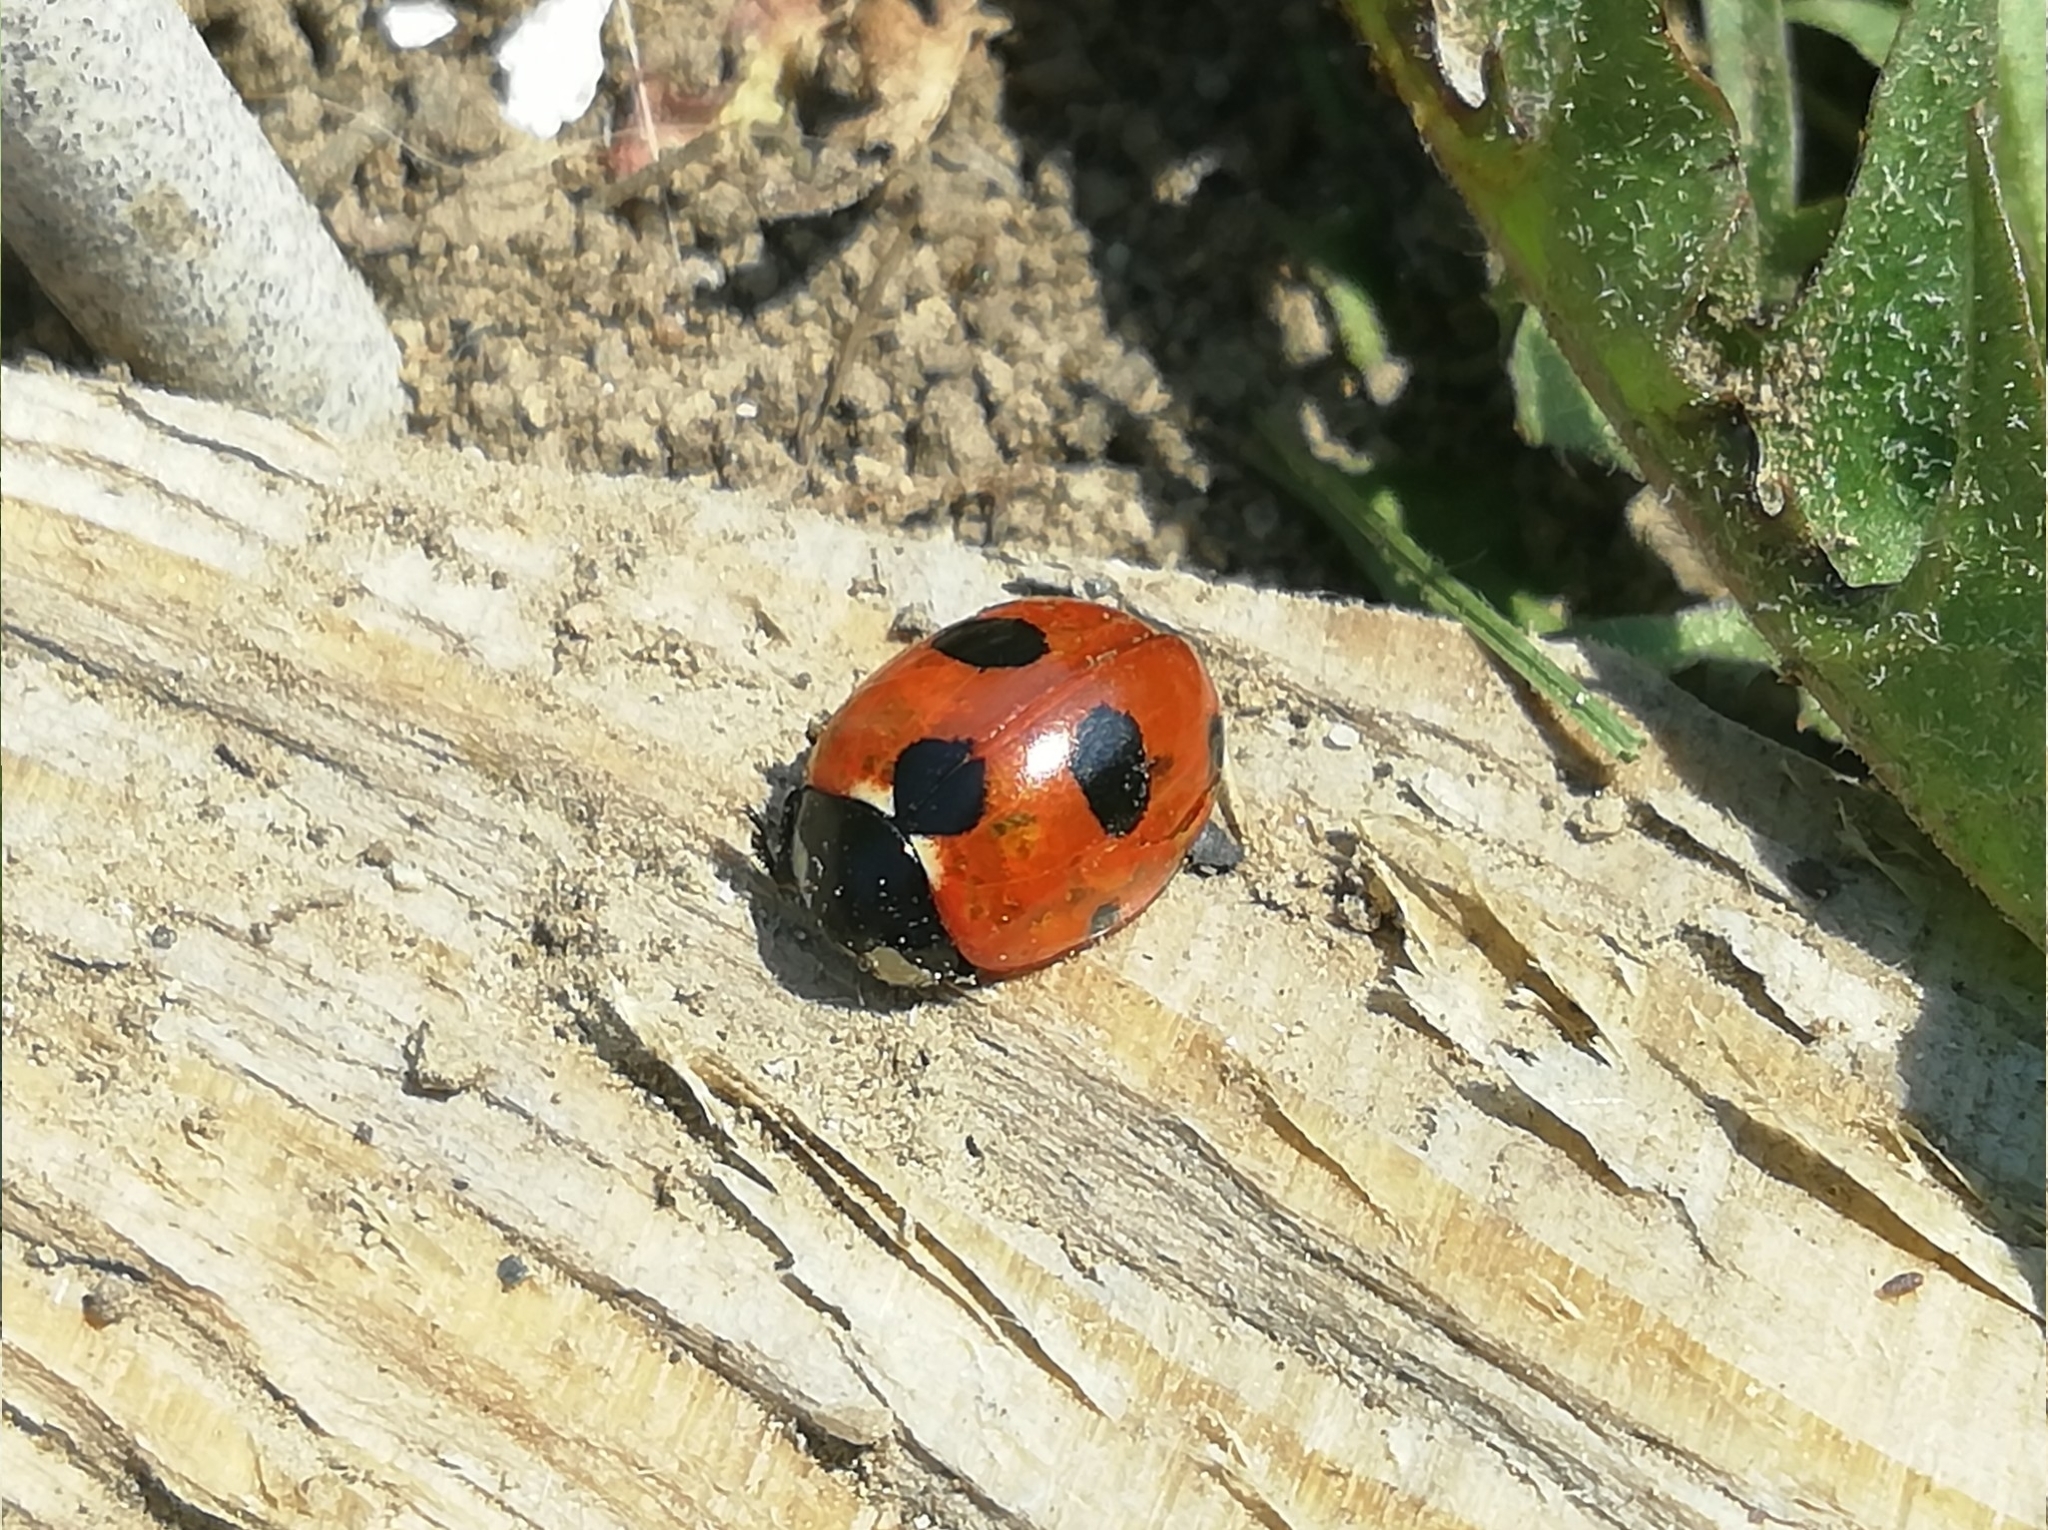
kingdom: Animalia
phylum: Arthropoda
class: Insecta
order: Coleoptera
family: Coccinellidae
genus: Coccinella
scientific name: Coccinella magnifica
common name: Scarce 7-spot ladybird
